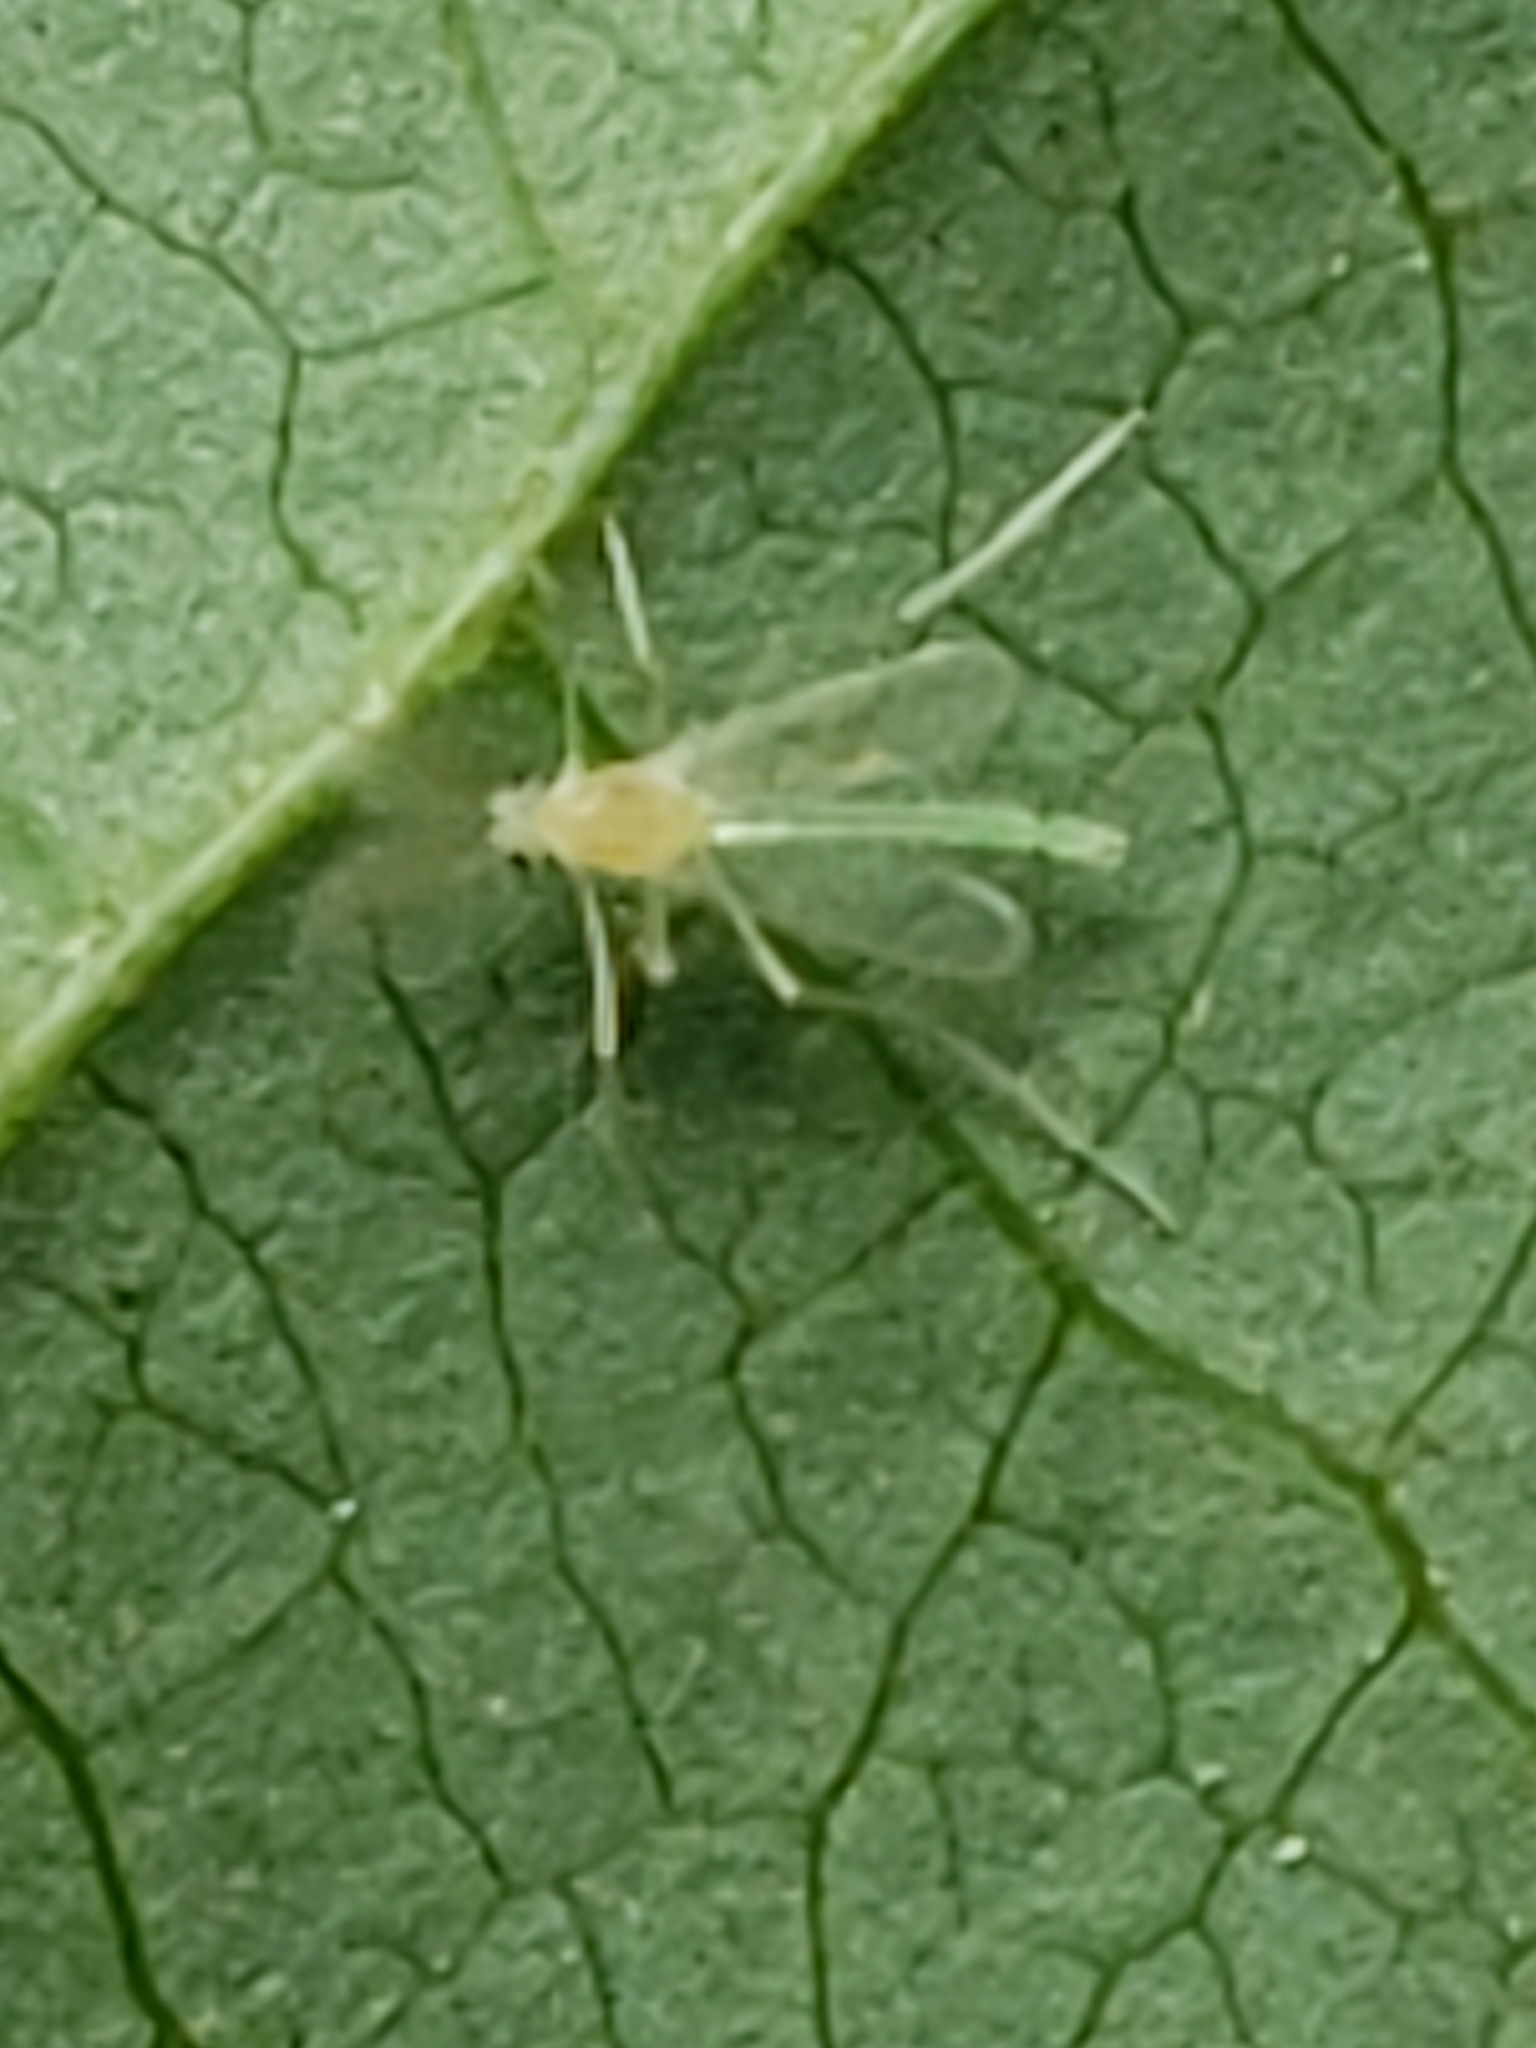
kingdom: Animalia
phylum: Arthropoda
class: Insecta
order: Diptera
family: Chironomidae
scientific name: Chironomidae
